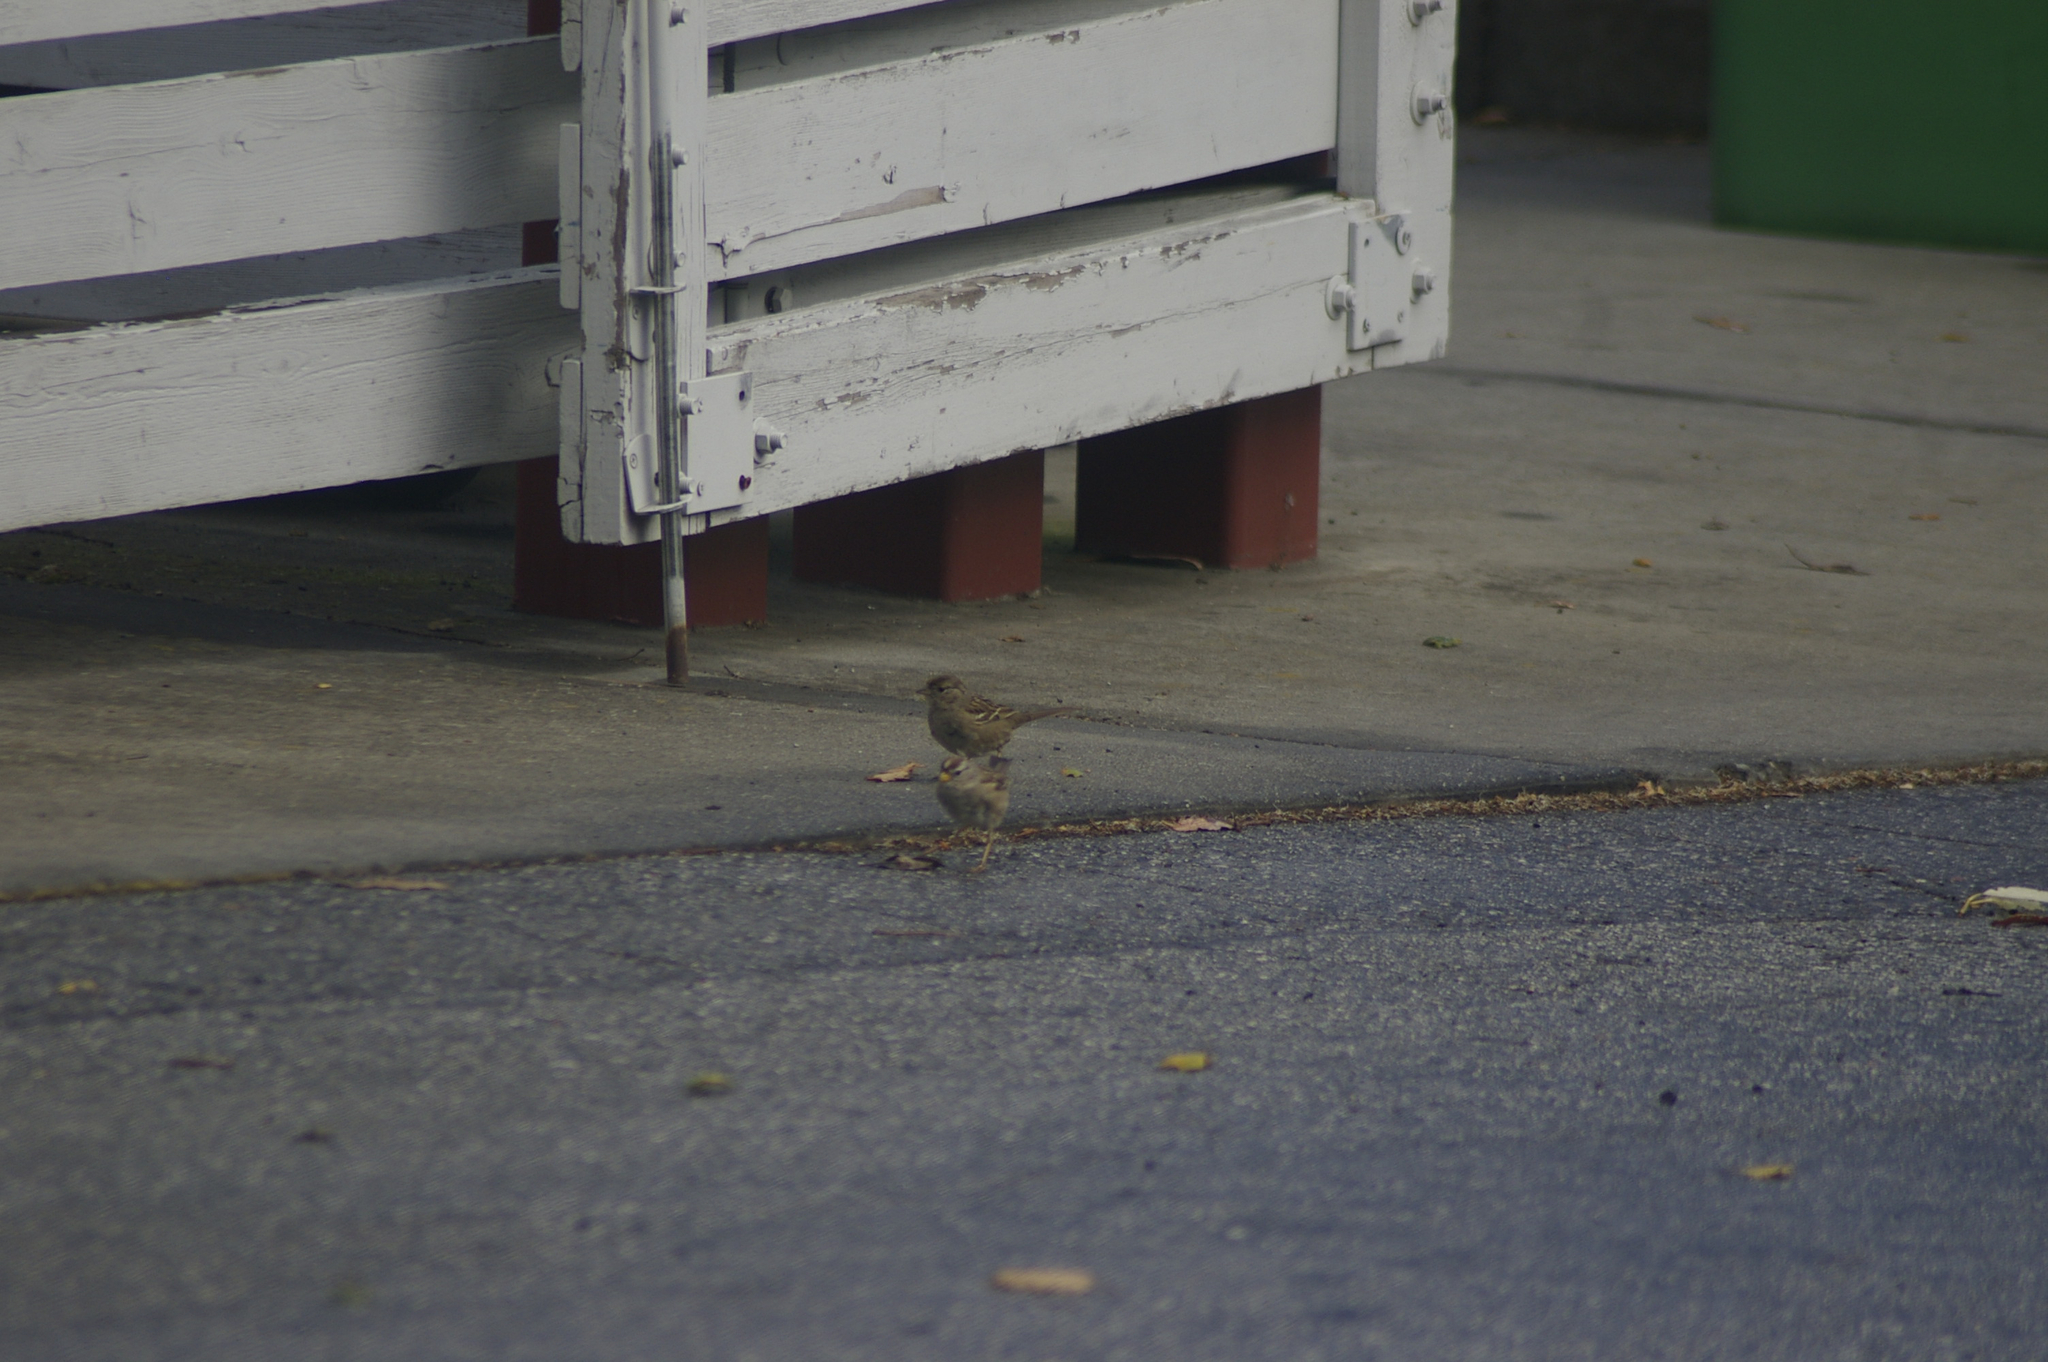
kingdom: Animalia
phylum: Chordata
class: Aves
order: Passeriformes
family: Passerellidae
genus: Zonotrichia
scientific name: Zonotrichia leucophrys
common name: White-crowned sparrow
